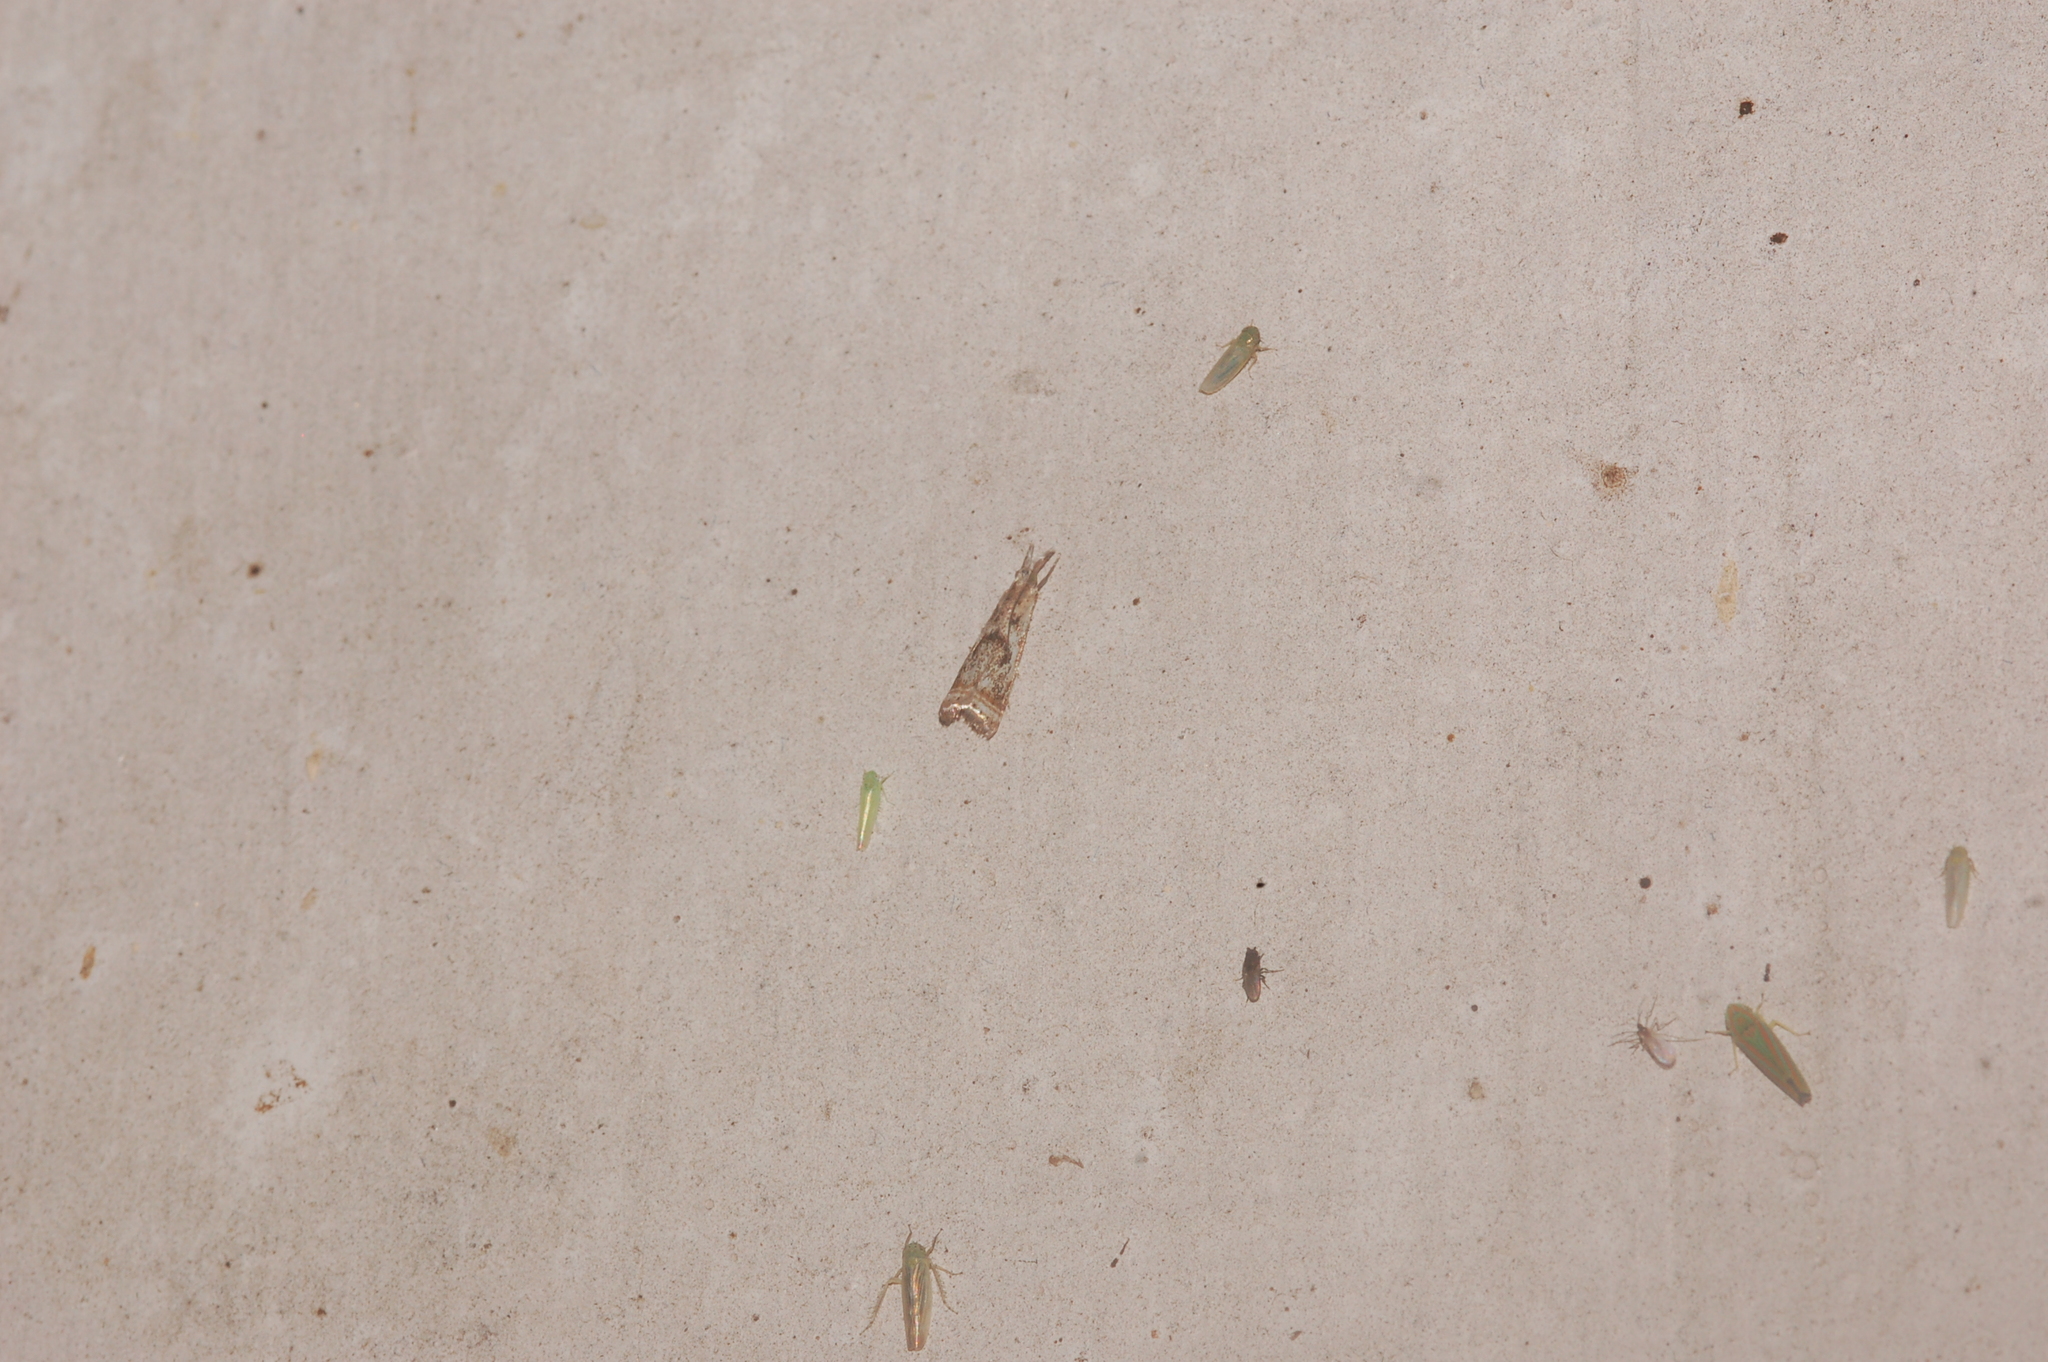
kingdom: Animalia
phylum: Arthropoda
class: Insecta
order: Lepidoptera
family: Crambidae
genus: Microcrambus
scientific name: Microcrambus elegans
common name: Elegant grass-veneer
